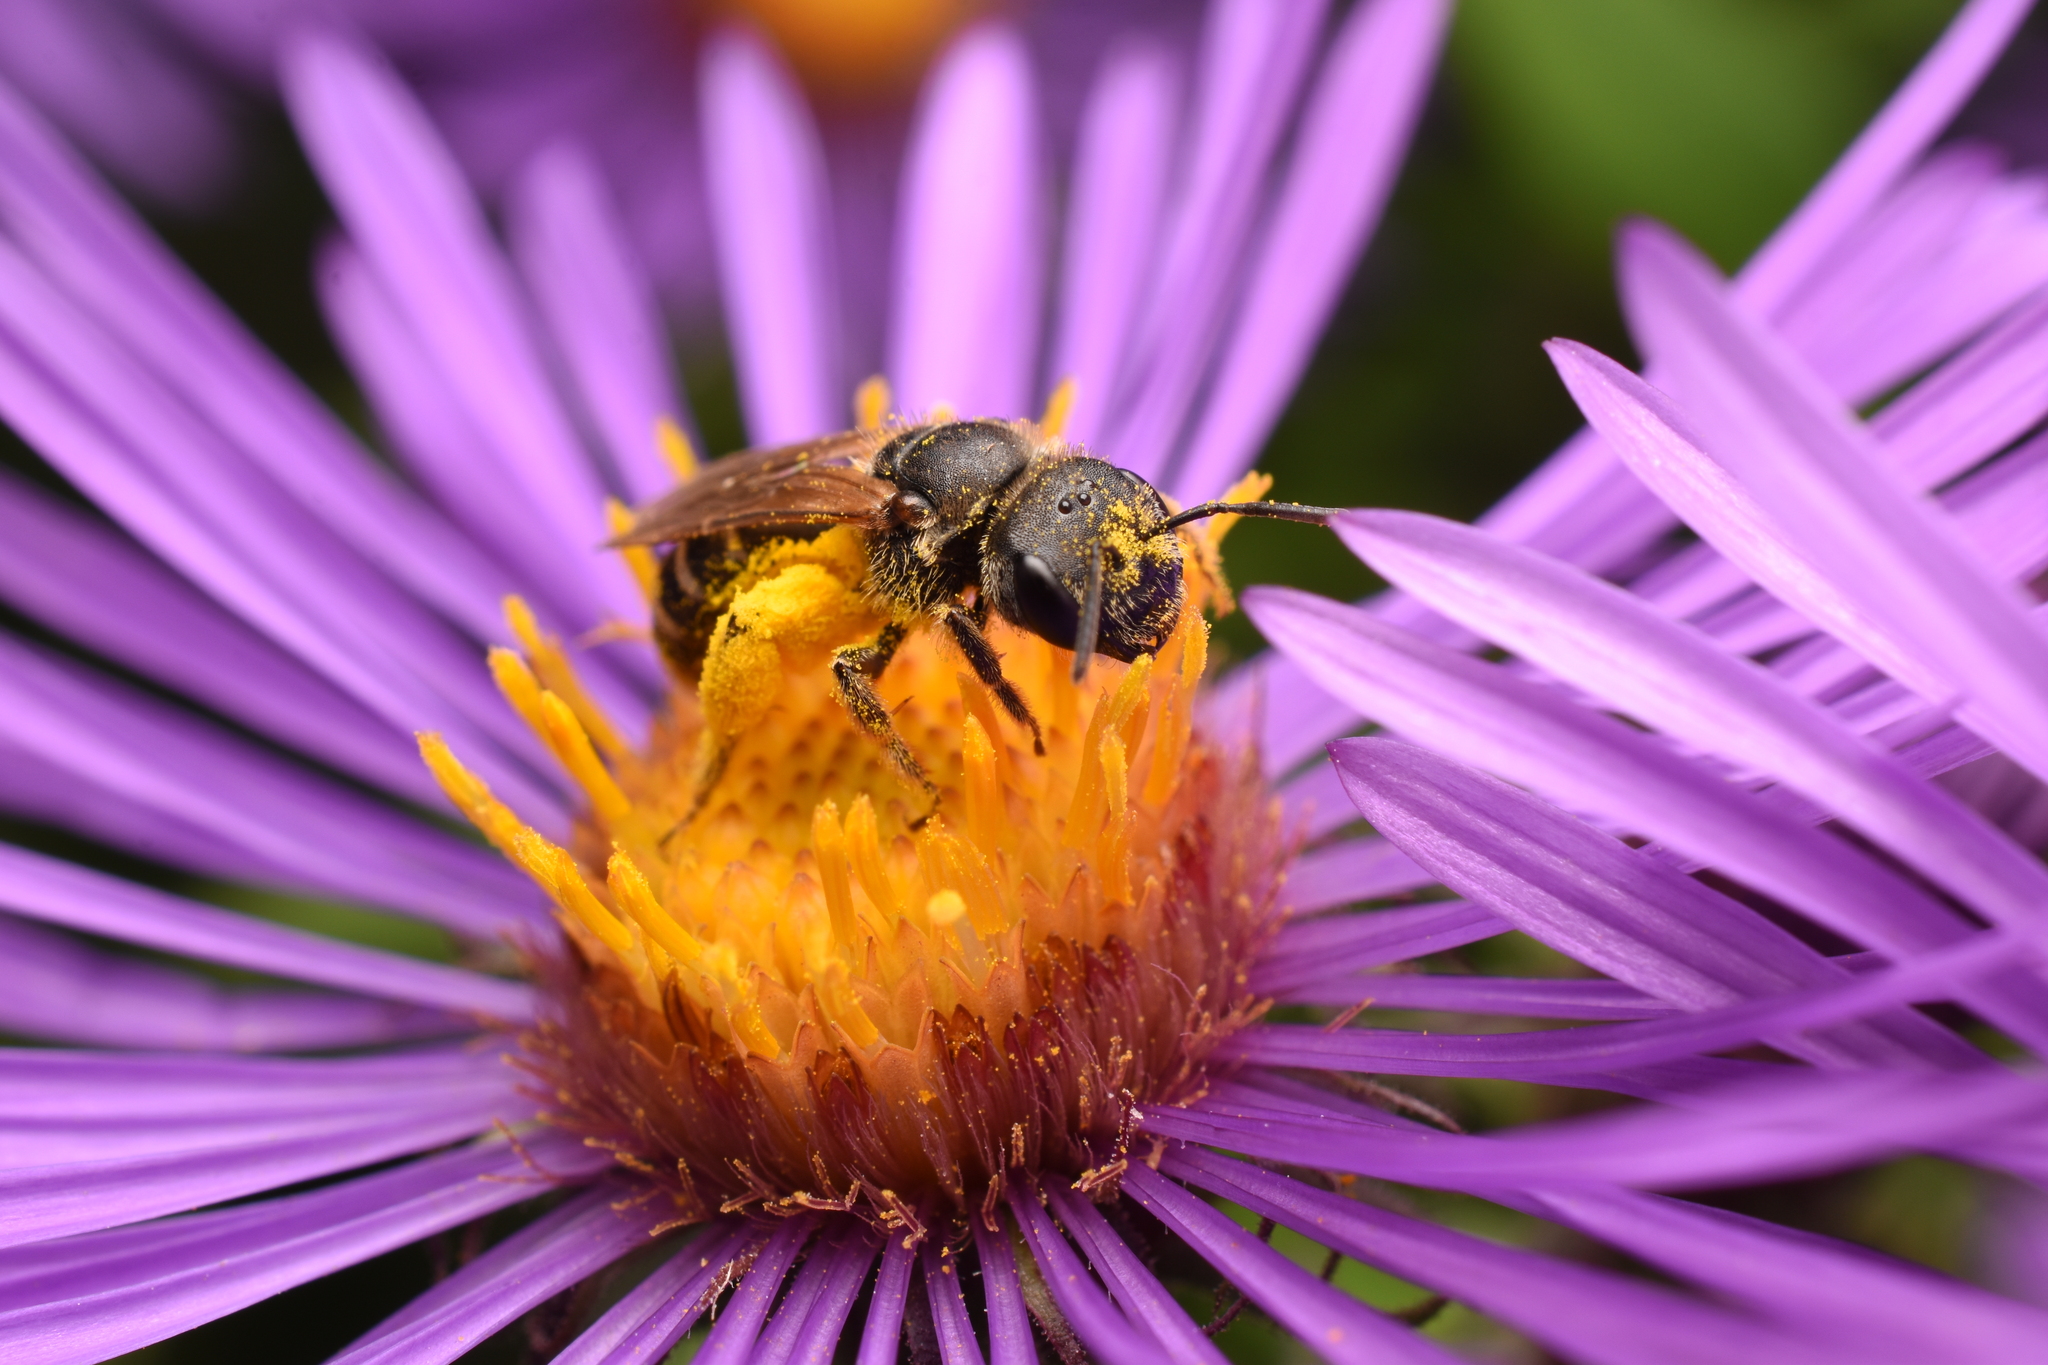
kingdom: Animalia
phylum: Arthropoda
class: Insecta
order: Hymenoptera
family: Halictidae
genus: Halictus
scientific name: Halictus ligatus
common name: Ligated furrow bee
